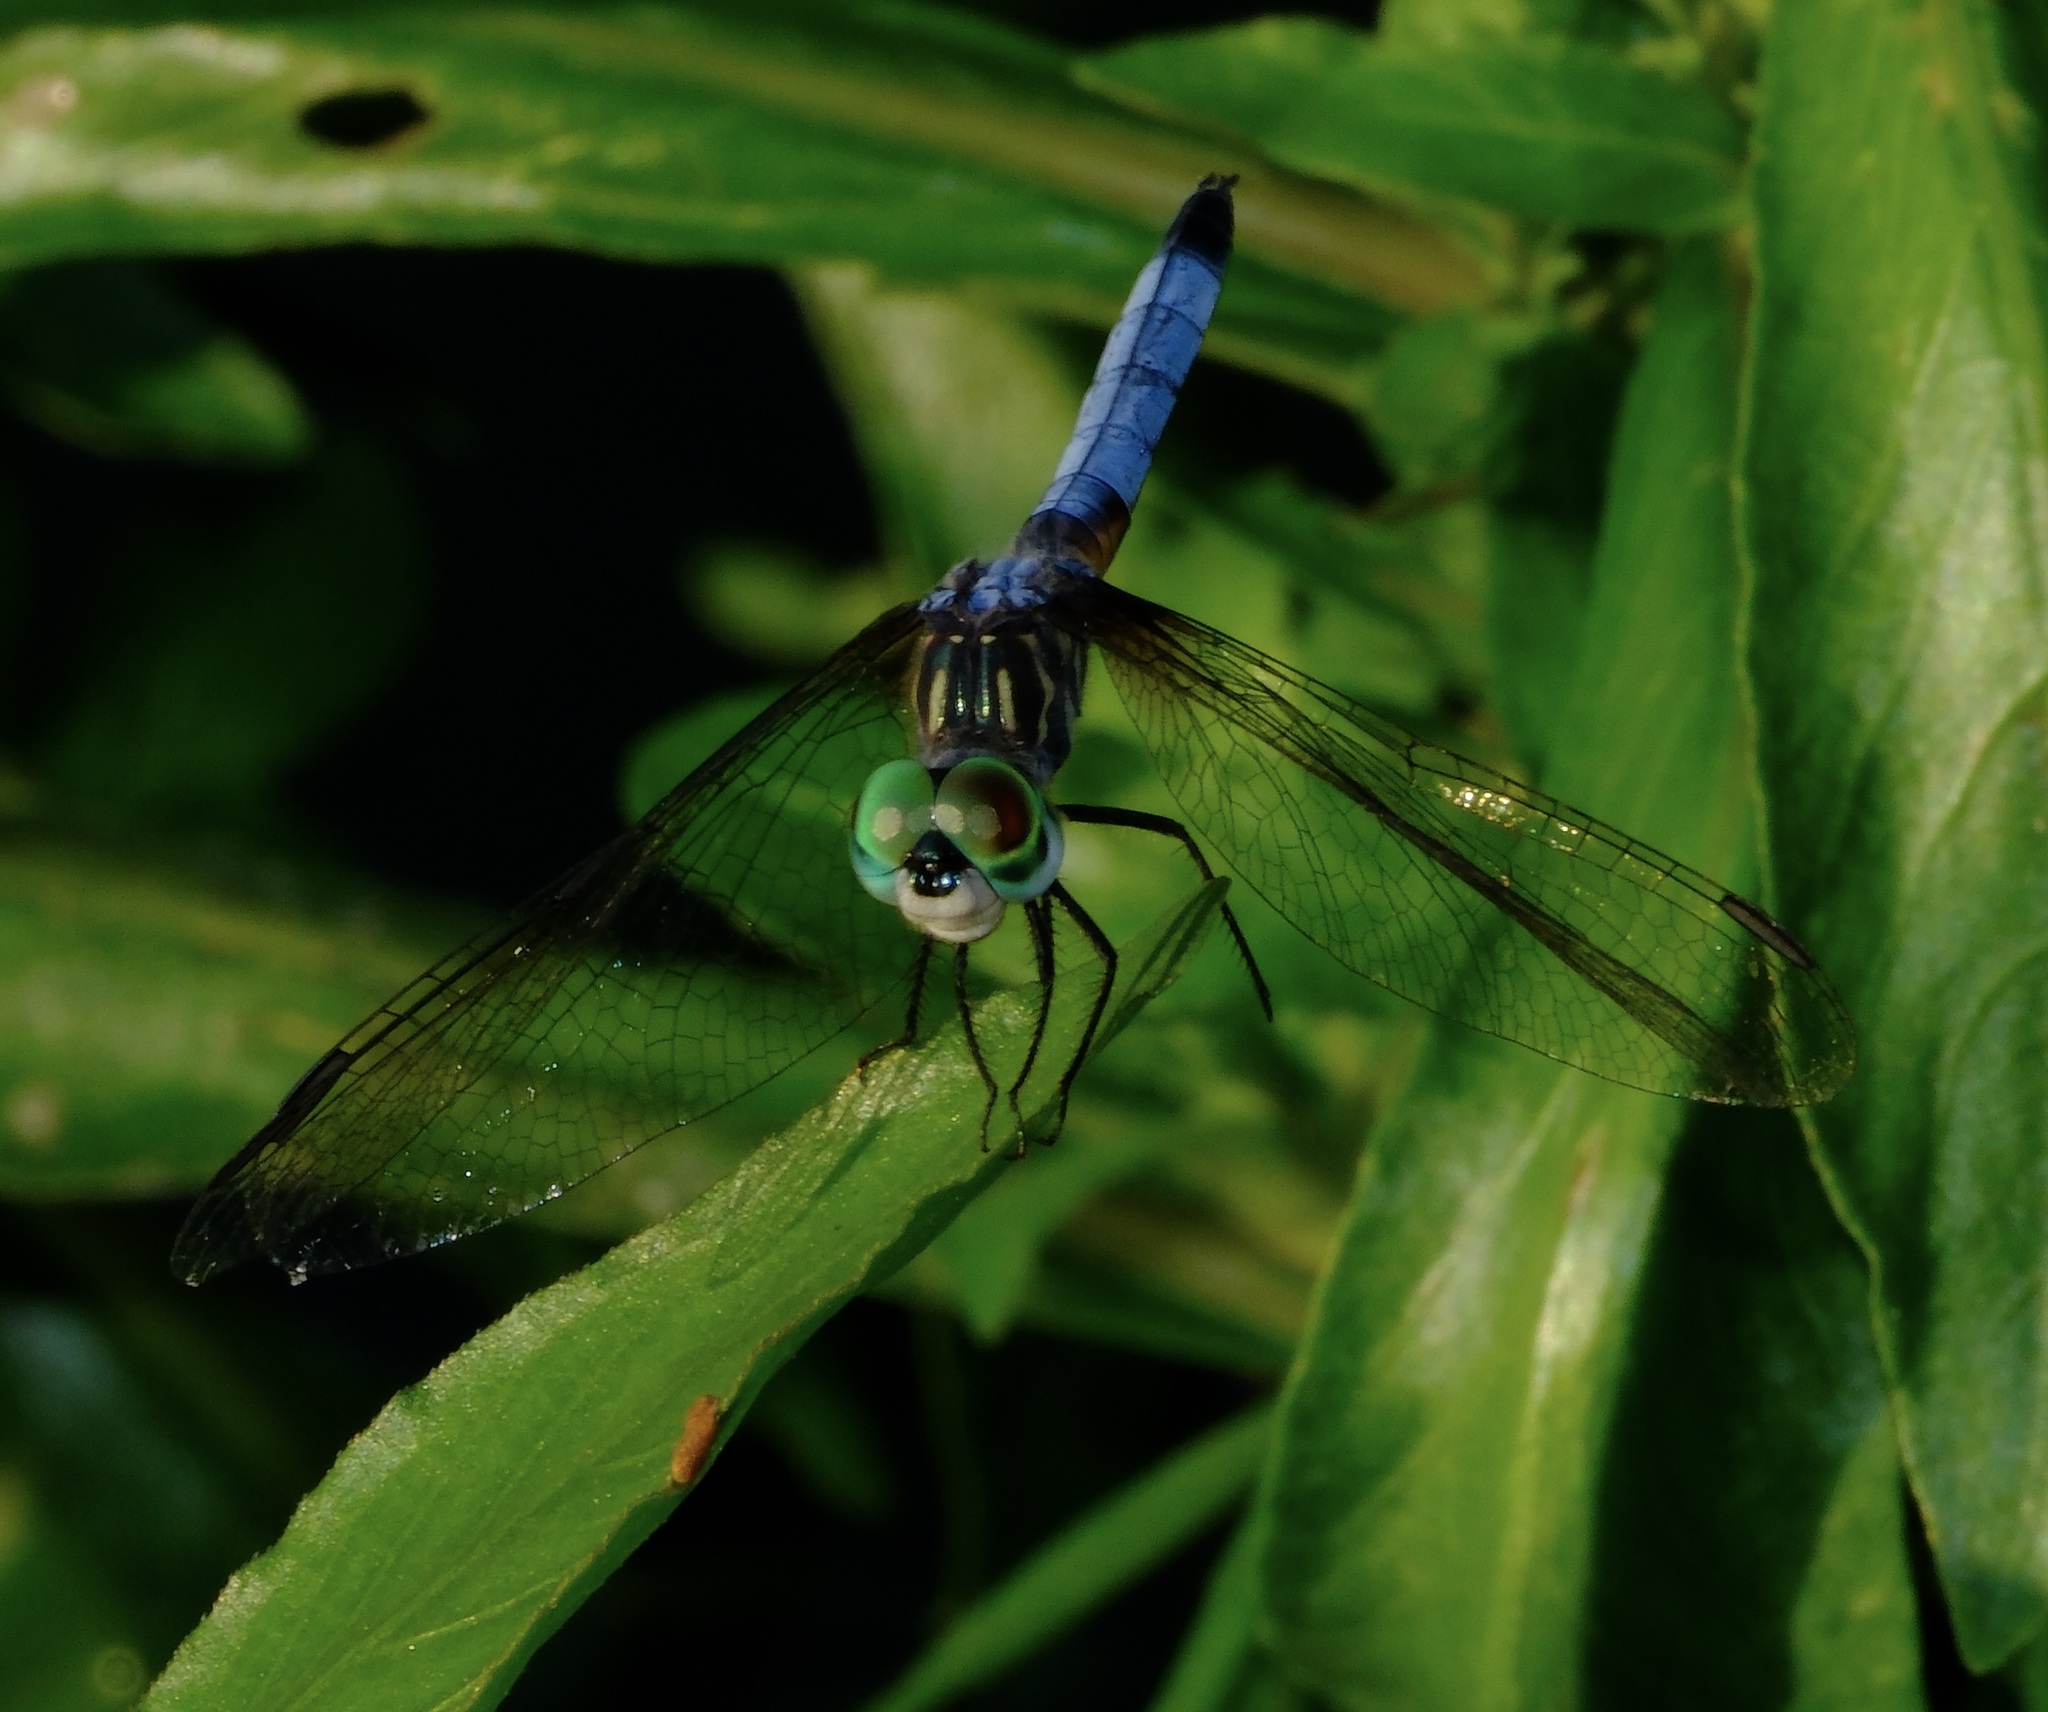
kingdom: Animalia
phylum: Arthropoda
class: Insecta
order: Odonata
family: Libellulidae
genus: Pachydiplax
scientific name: Pachydiplax longipennis
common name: Blue dasher
